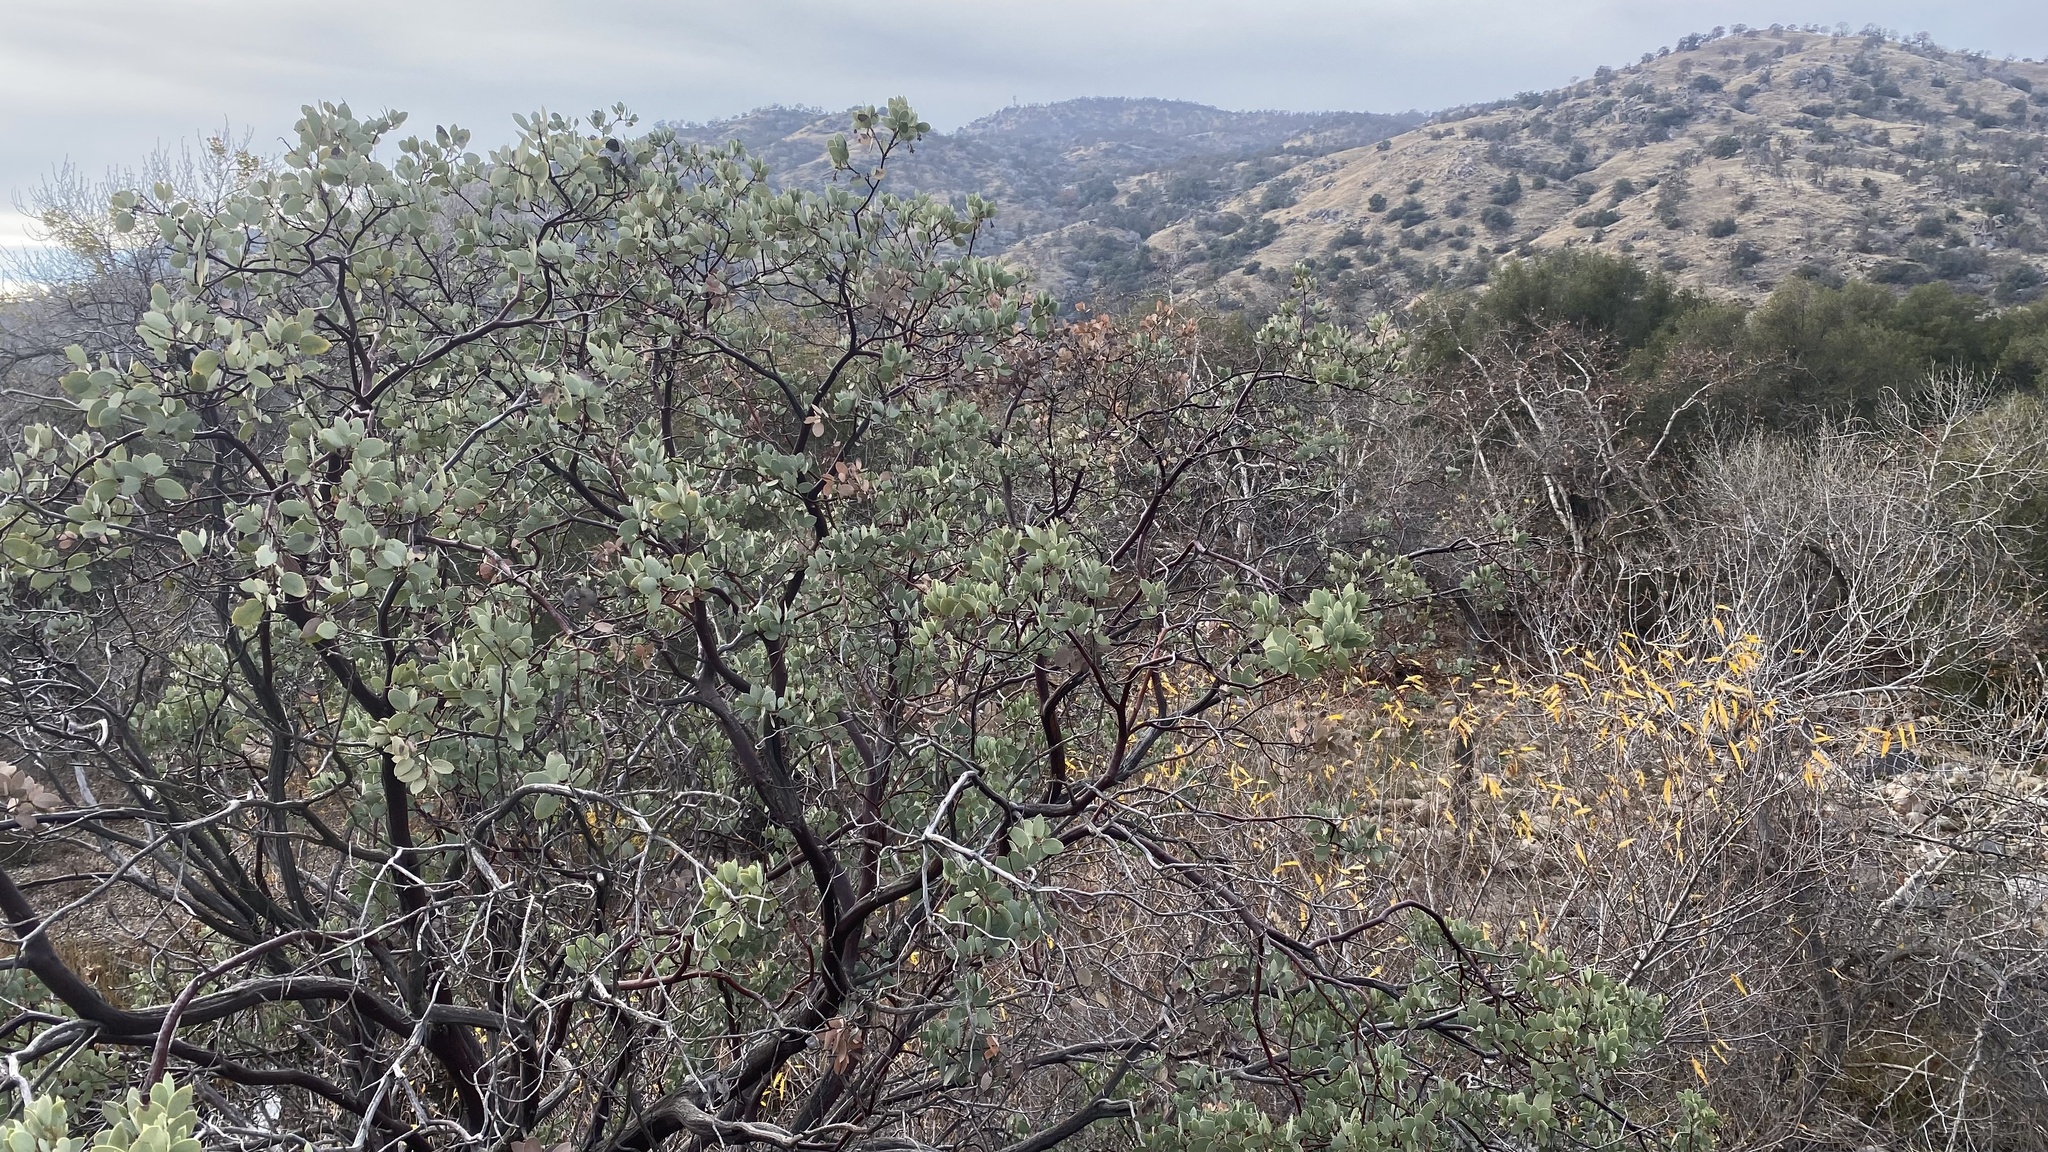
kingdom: Plantae
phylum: Tracheophyta
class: Magnoliopsida
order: Ericales
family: Ericaceae
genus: Arctostaphylos
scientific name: Arctostaphylos viscida
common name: White-leaf manzanita
